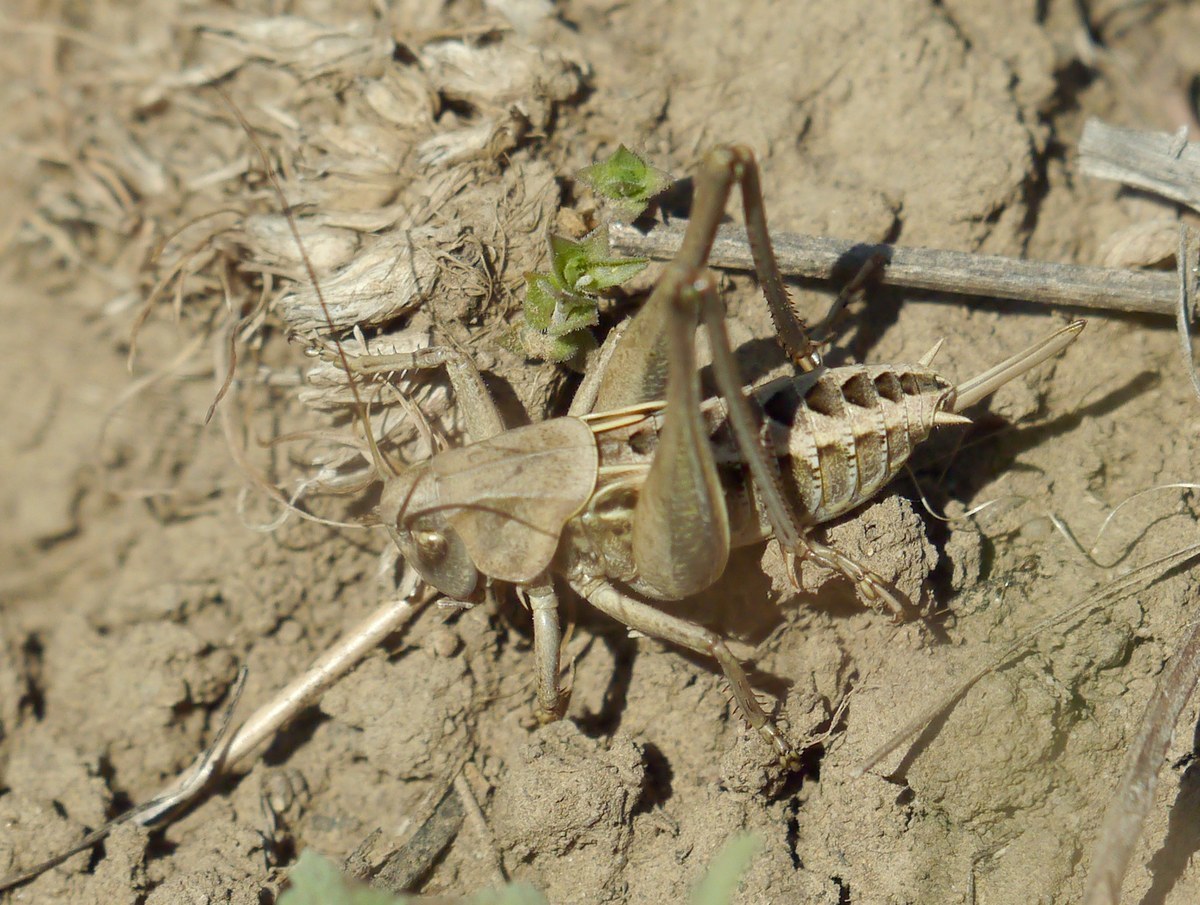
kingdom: Animalia
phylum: Arthropoda
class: Insecta
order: Orthoptera
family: Tettigoniidae
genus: Decticus
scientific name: Decticus verrucivorus
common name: Wart-biter
